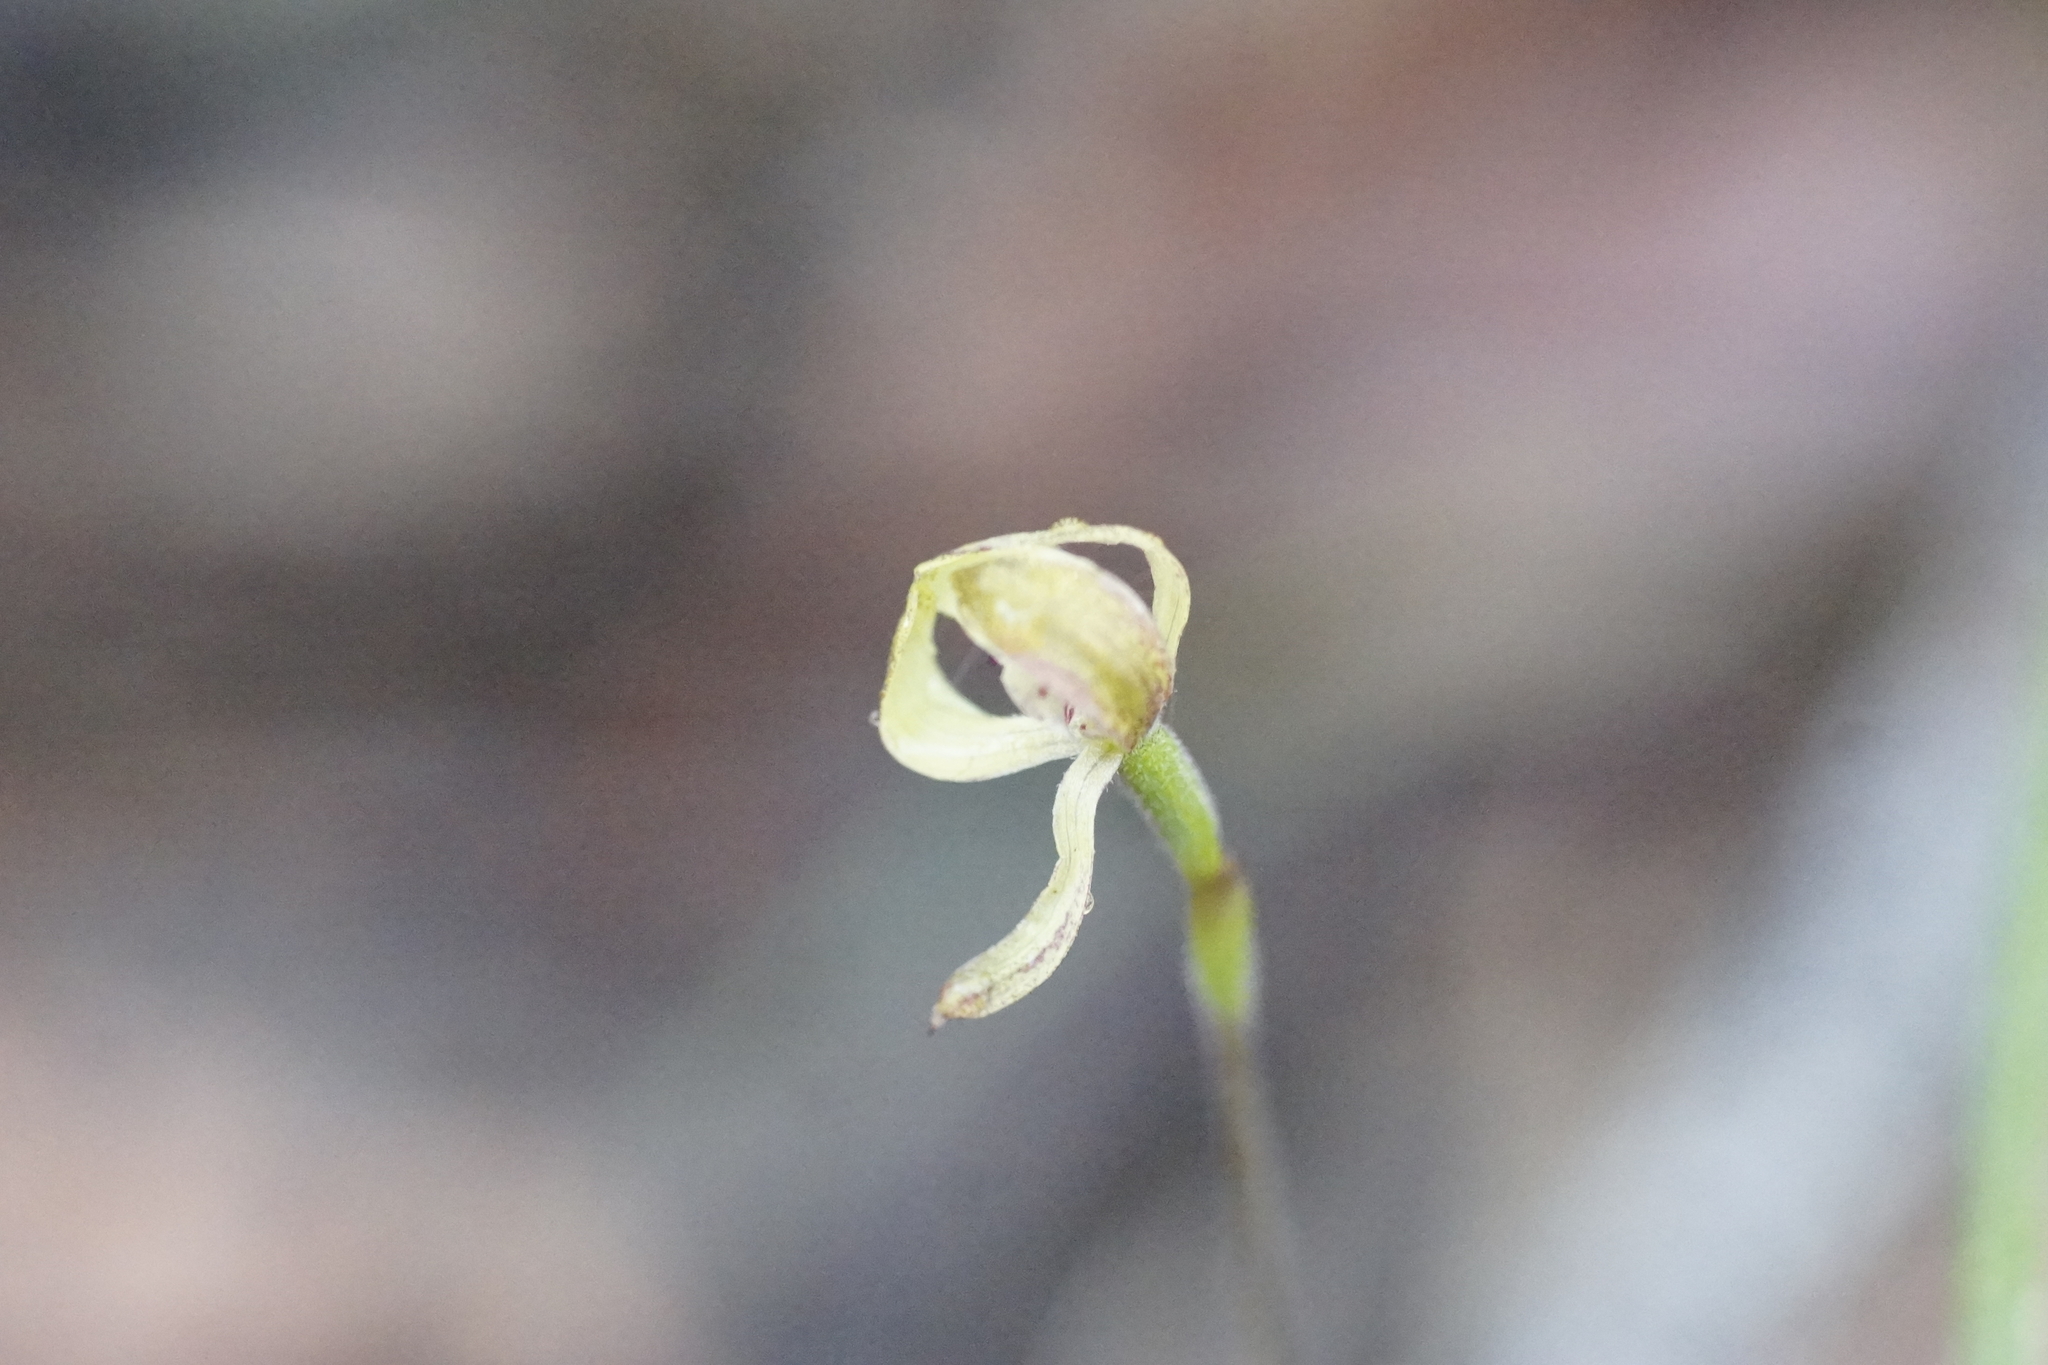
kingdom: Plantae
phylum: Tracheophyta
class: Liliopsida
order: Asparagales
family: Orchidaceae
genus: Caladenia
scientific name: Caladenia transitoria
